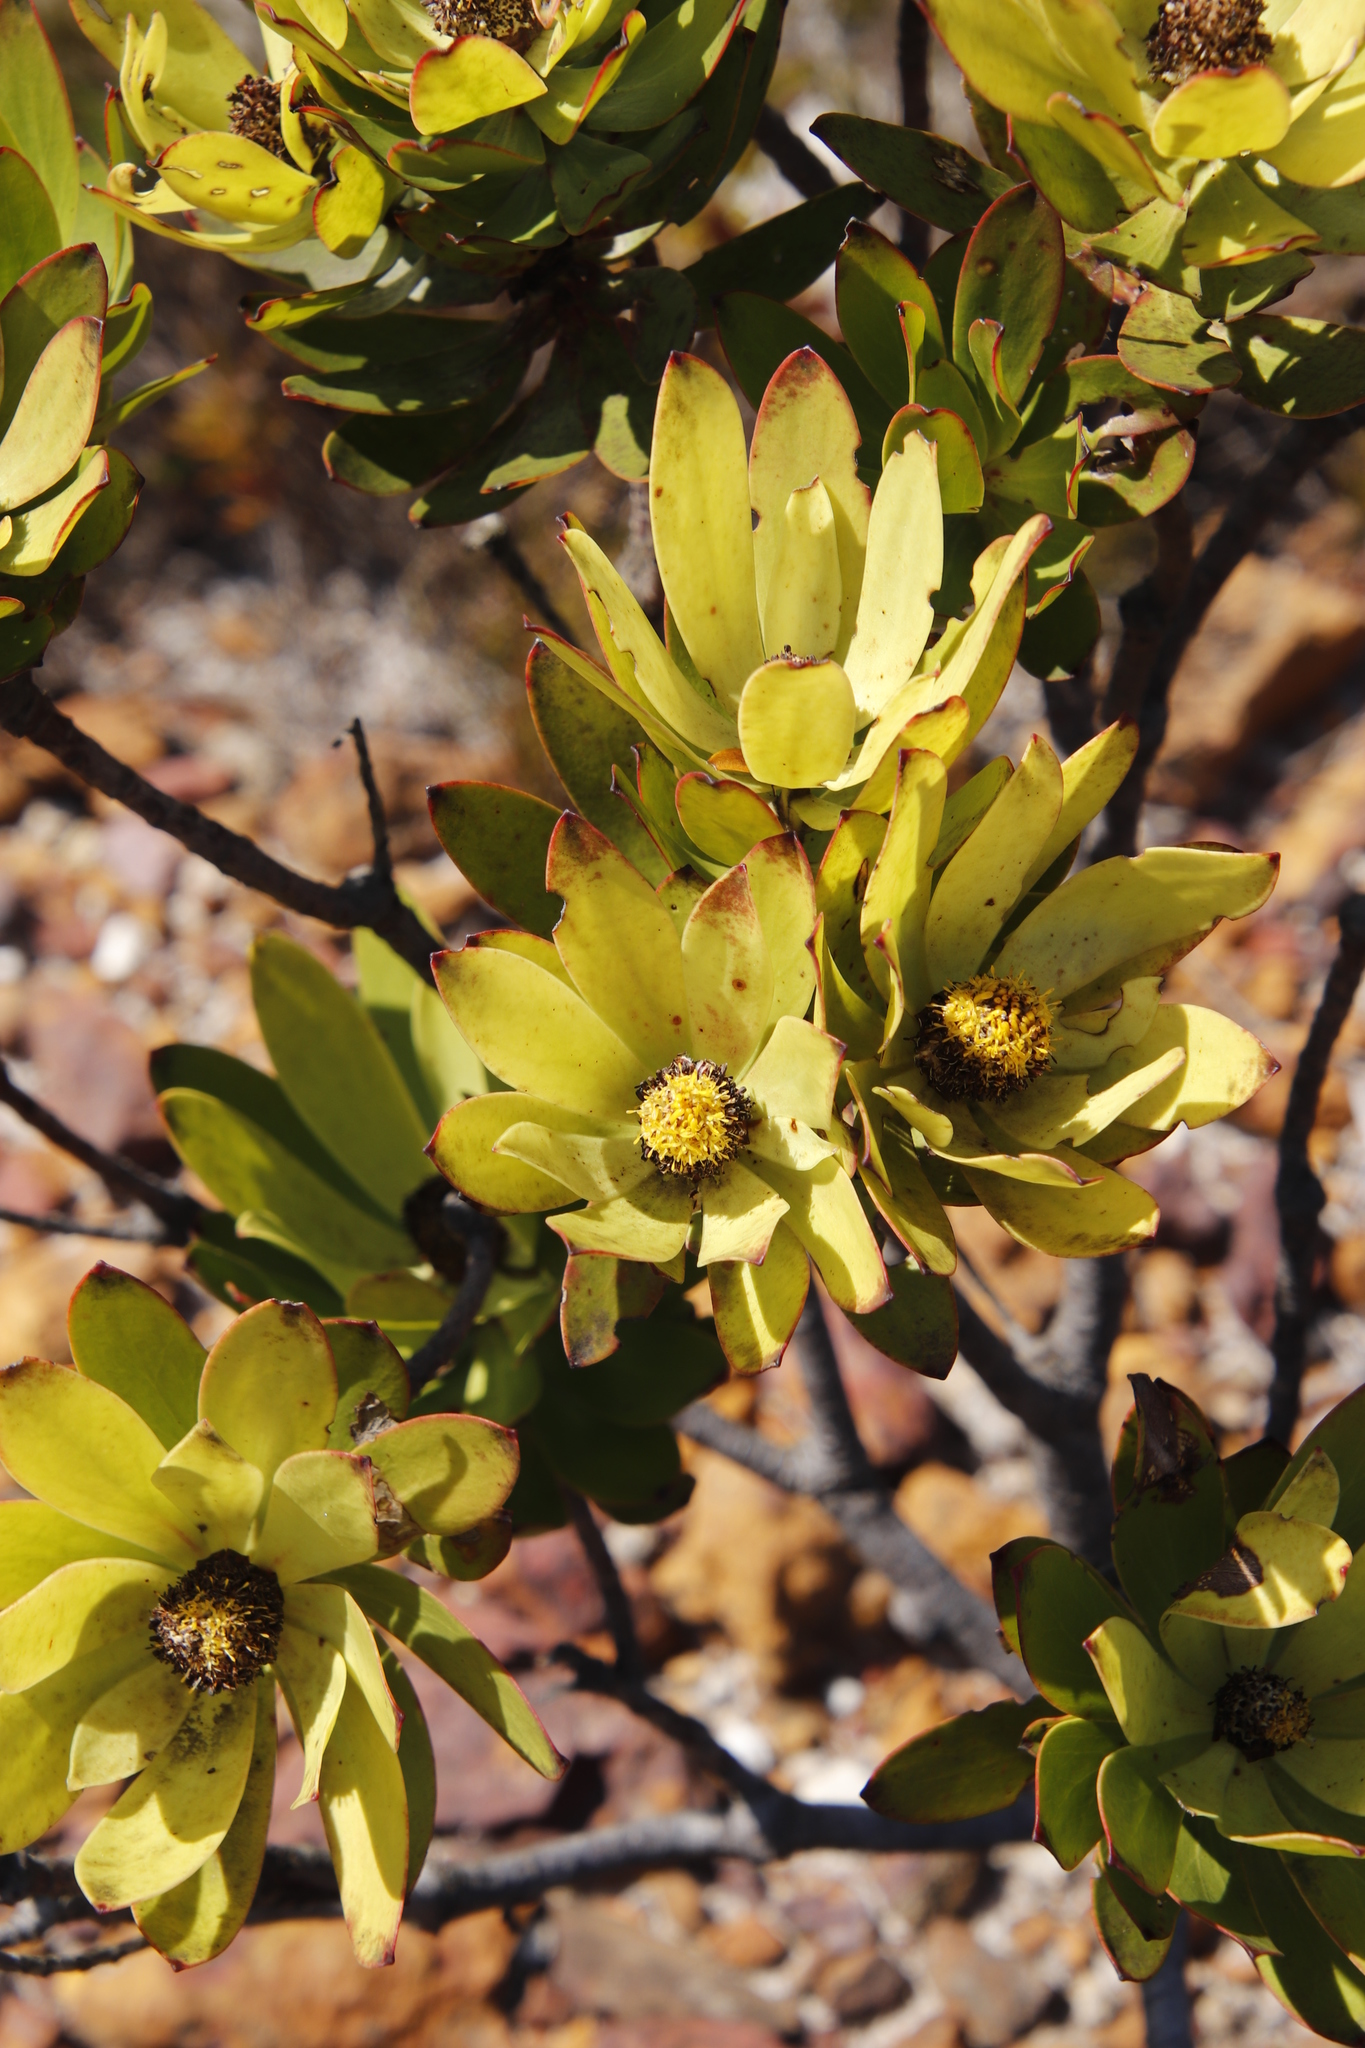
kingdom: Plantae
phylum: Tracheophyta
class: Magnoliopsida
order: Proteales
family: Proteaceae
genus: Leucadendron
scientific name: Leucadendron gandogeri
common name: Broad-leaf conebush
